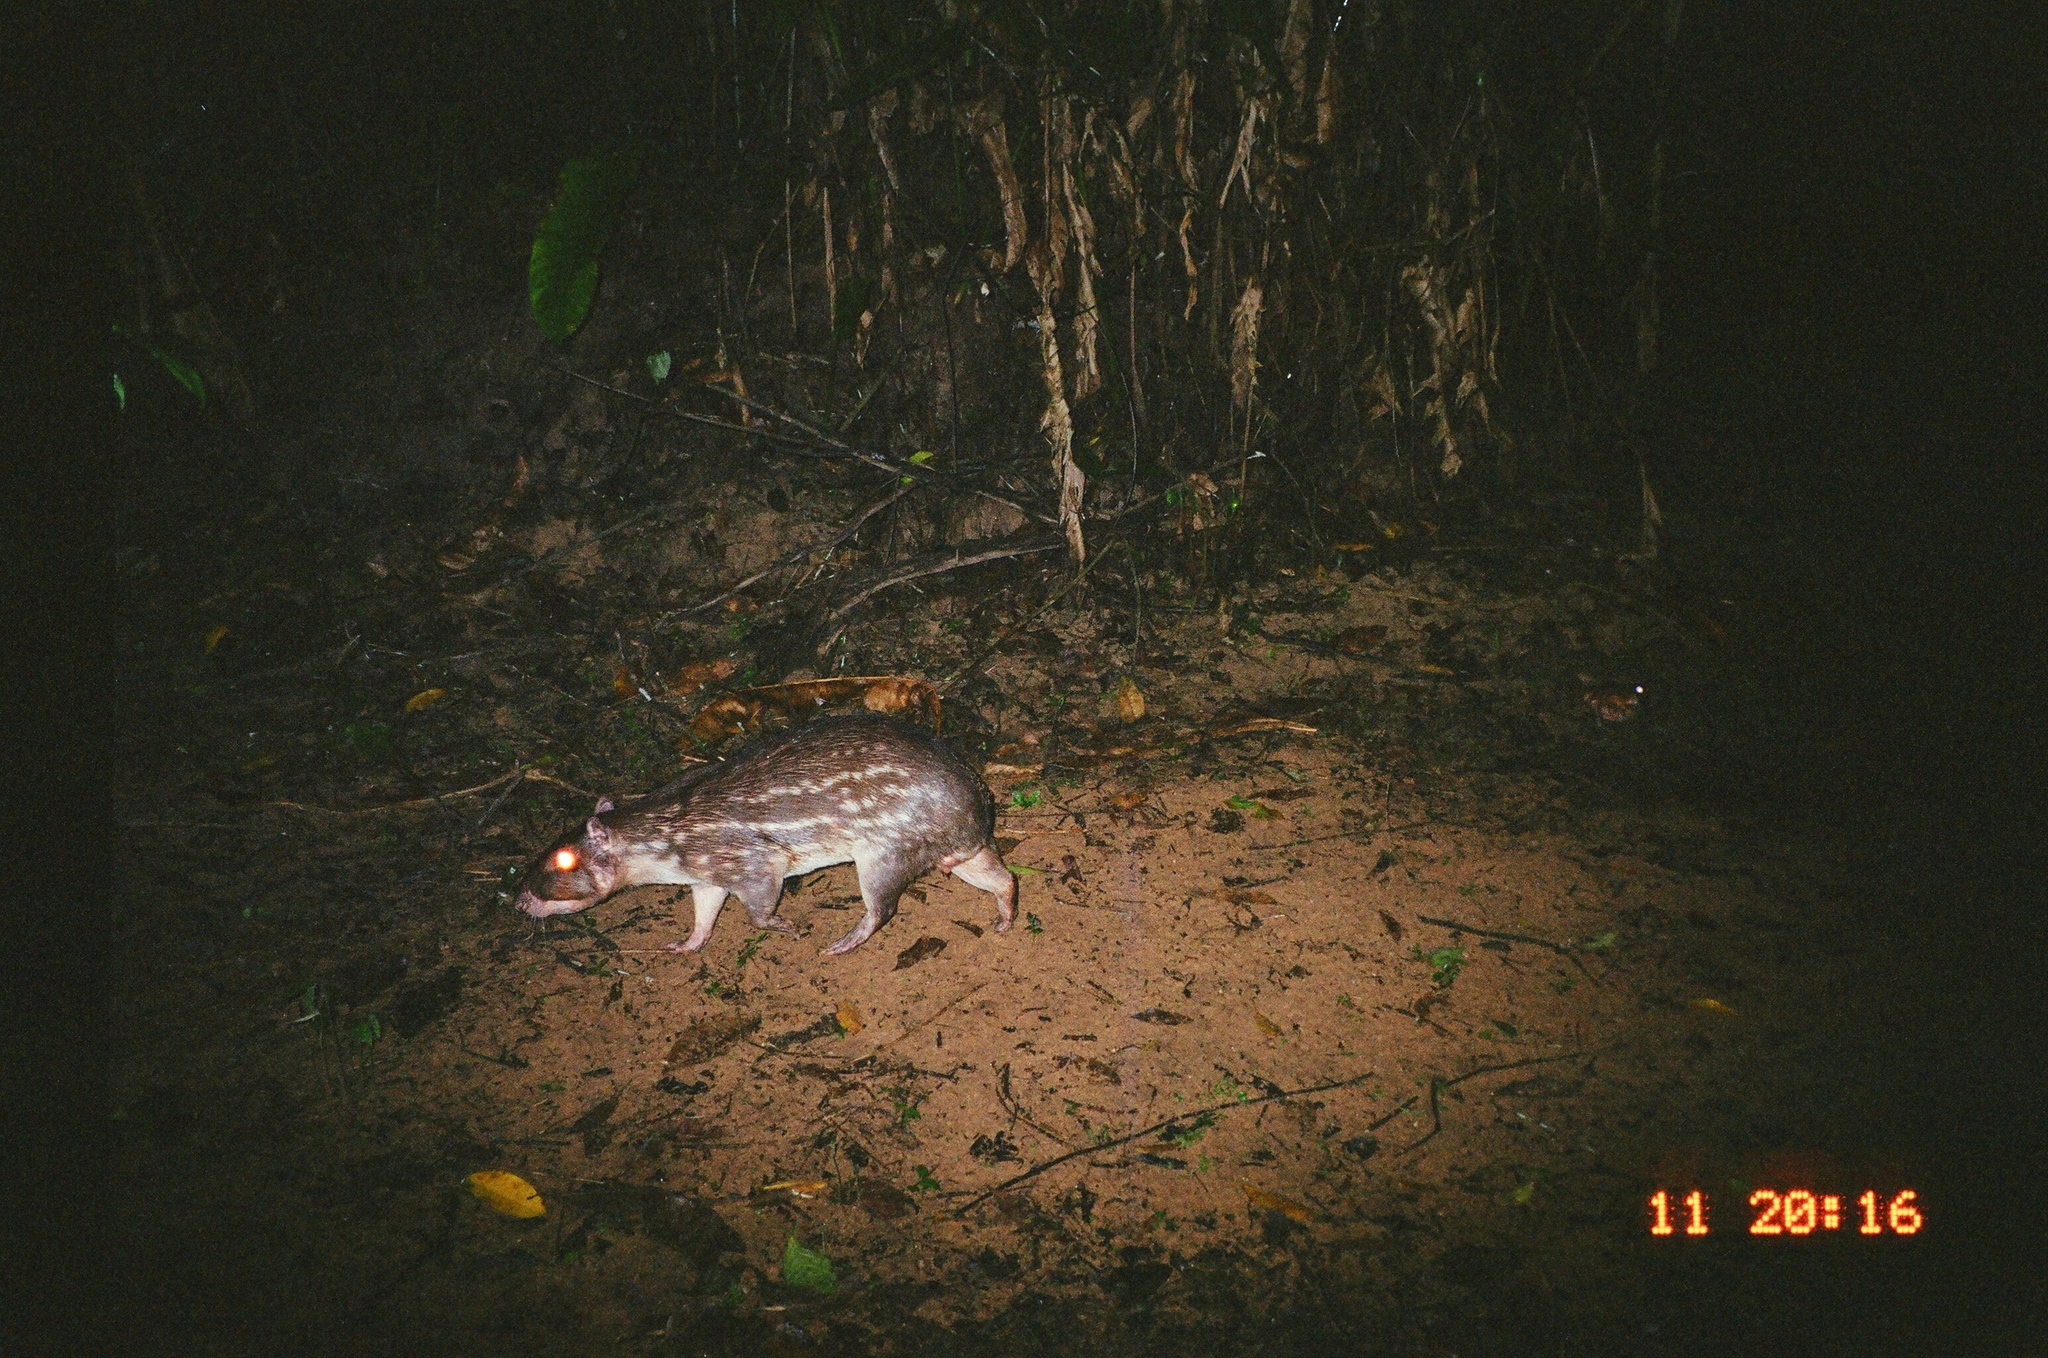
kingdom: Animalia
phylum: Chordata
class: Mammalia
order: Rodentia
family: Cuniculidae
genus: Cuniculus
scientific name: Cuniculus paca
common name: Lowland paca
